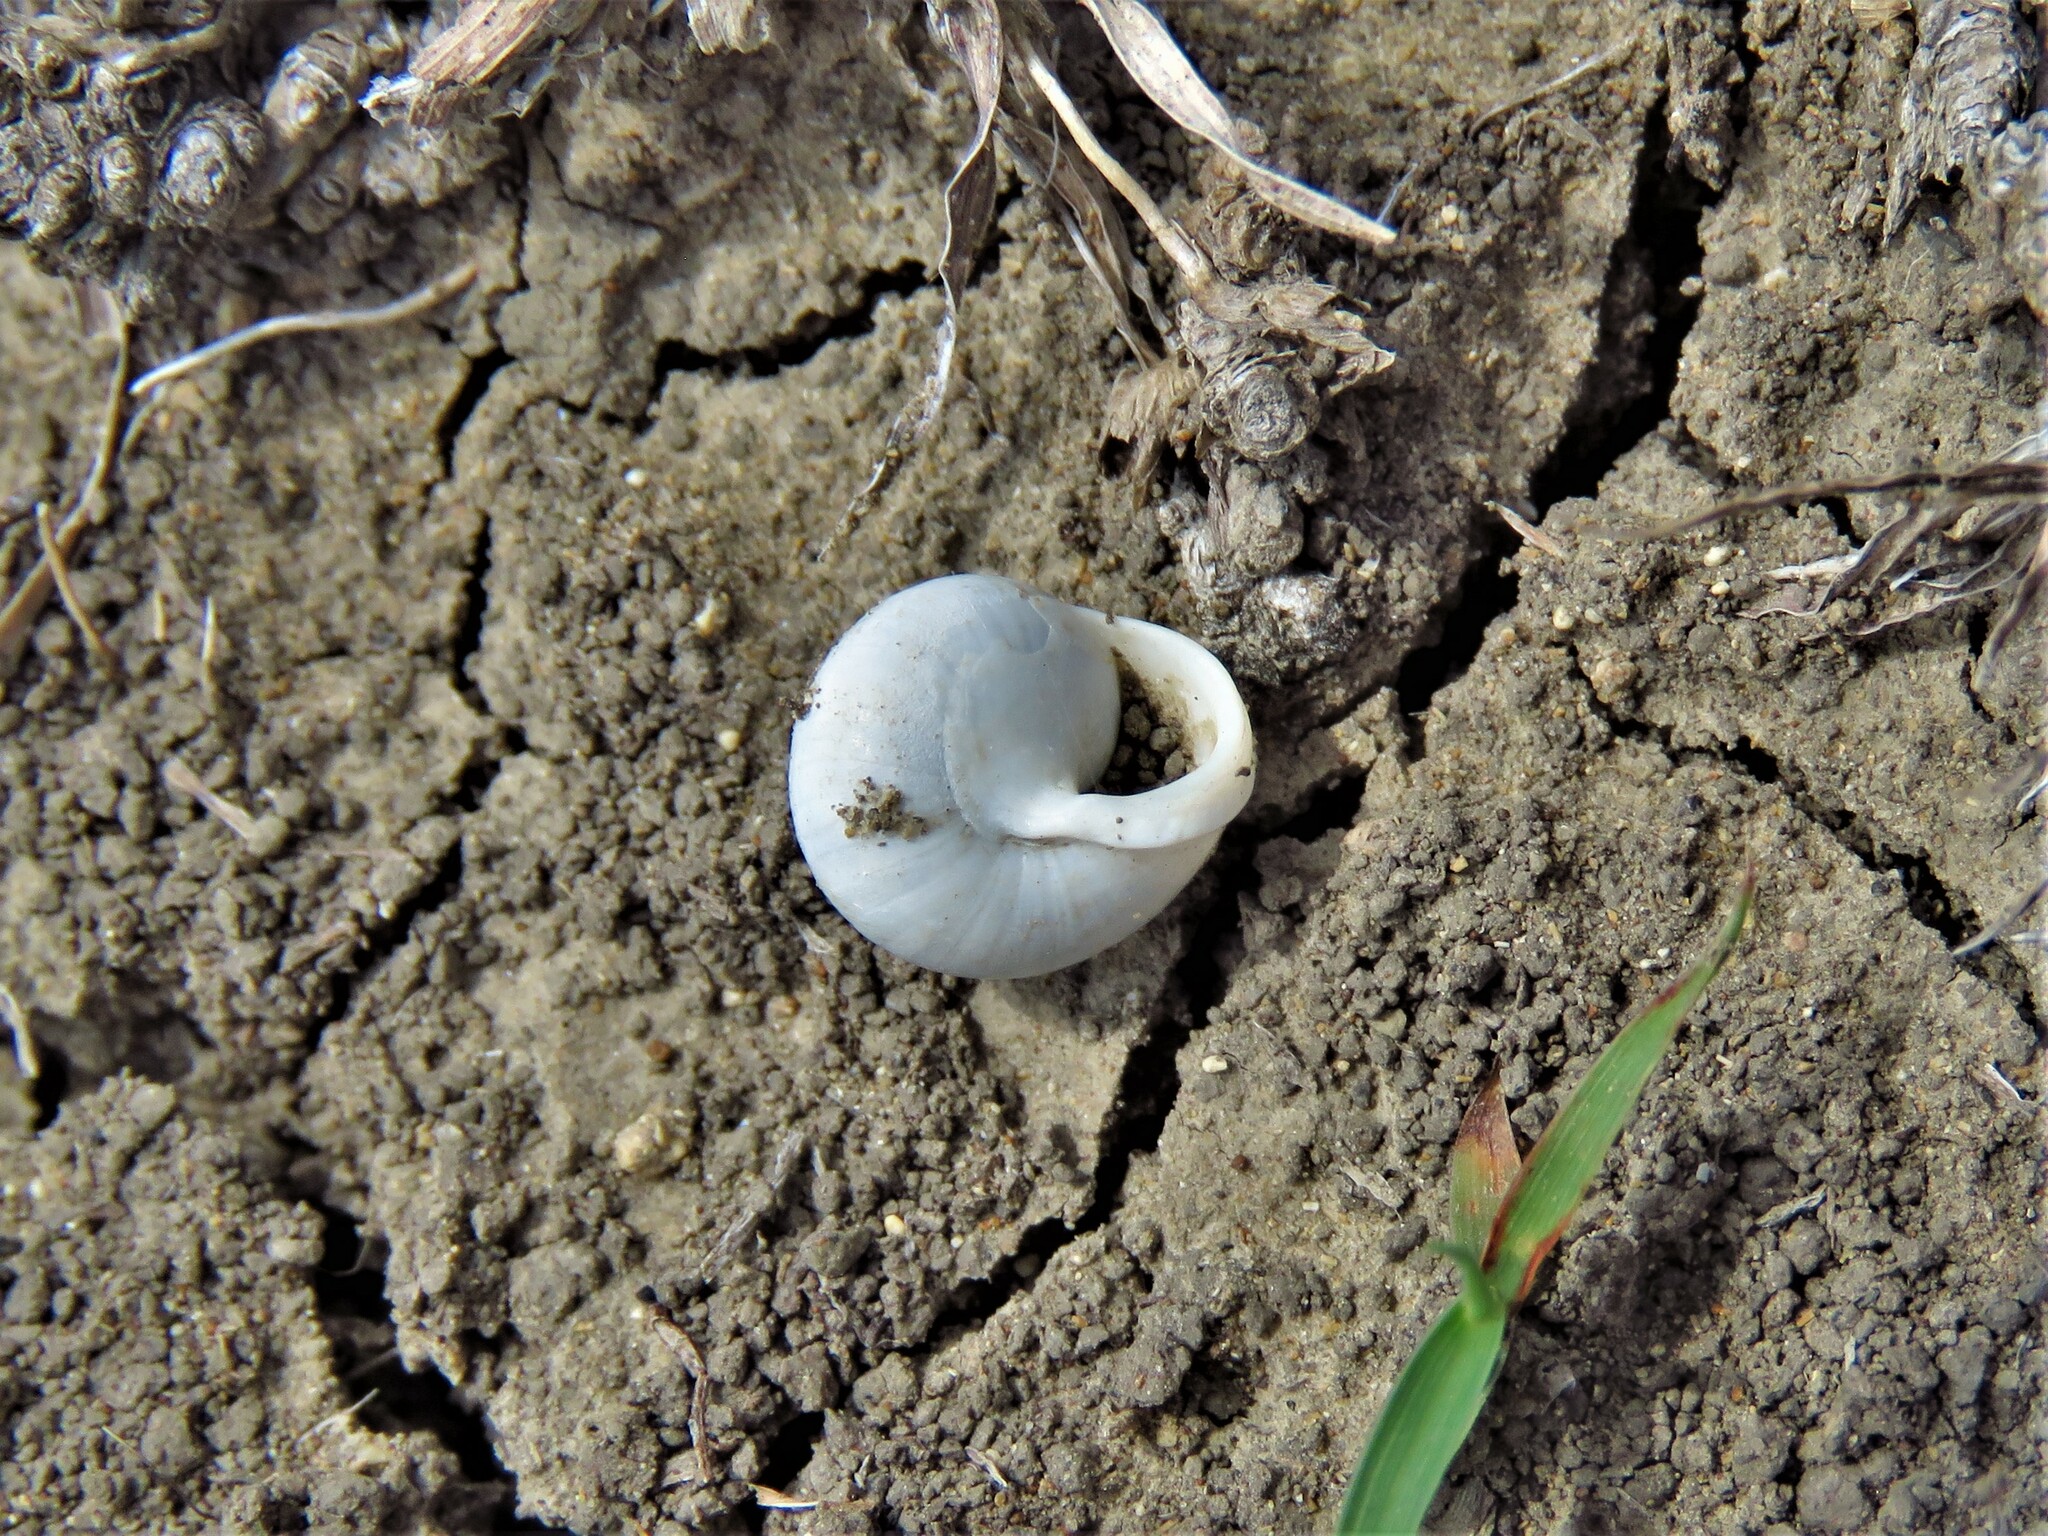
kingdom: Animalia
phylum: Mollusca
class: Gastropoda
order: Cycloneritida
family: Helicinidae
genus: Helicina
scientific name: Helicina orbiculata
